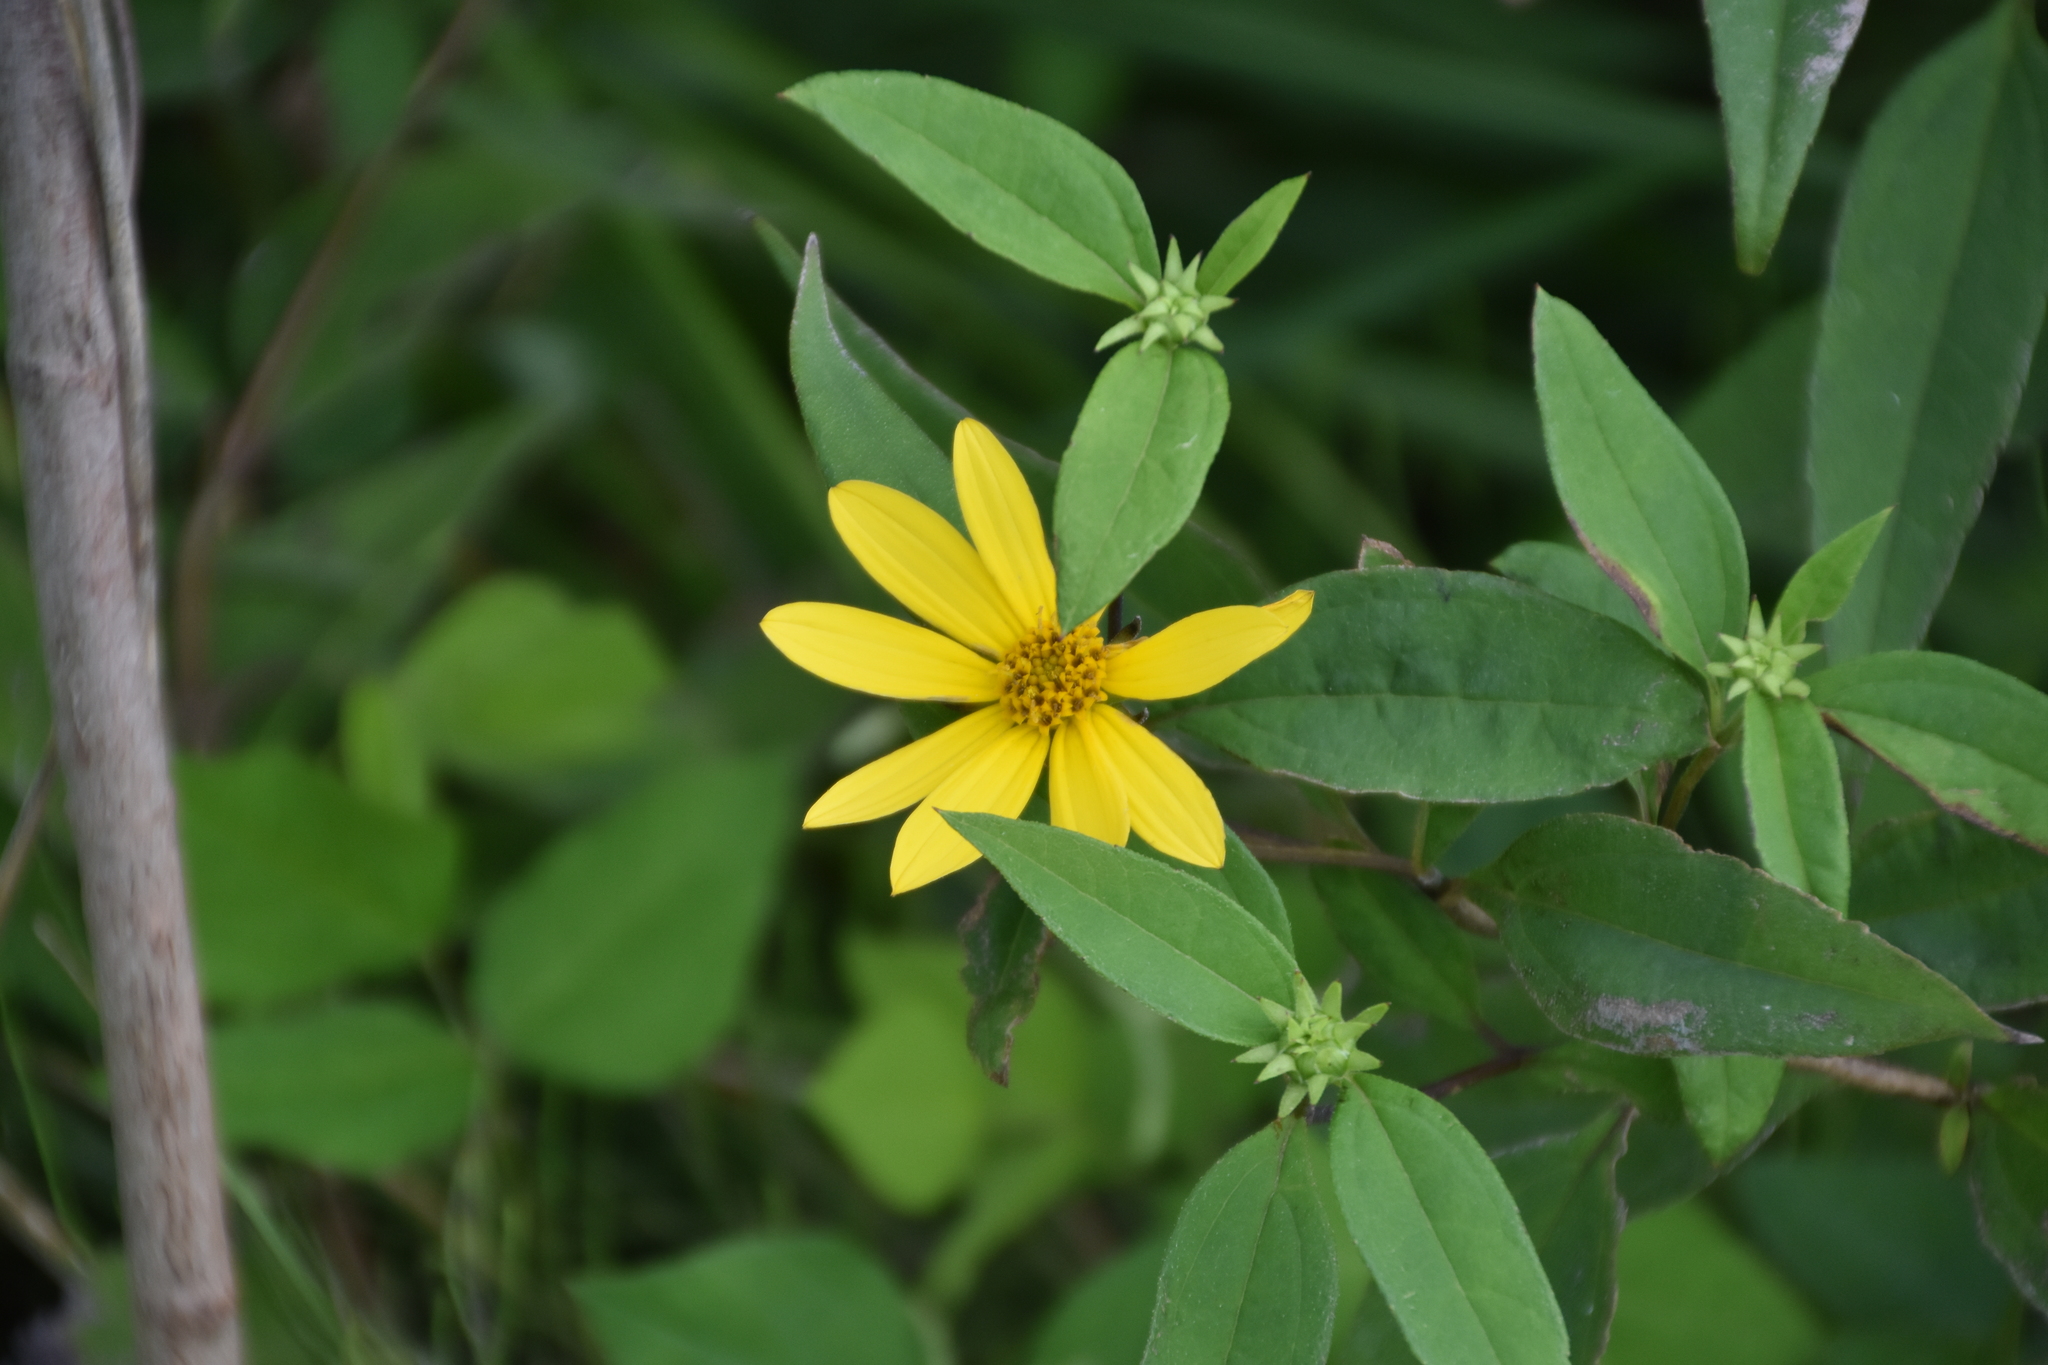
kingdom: Plantae
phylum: Tracheophyta
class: Magnoliopsida
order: Asterales
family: Asteraceae
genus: Helianthus
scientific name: Helianthus divaricatus
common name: Divergent sunflower
